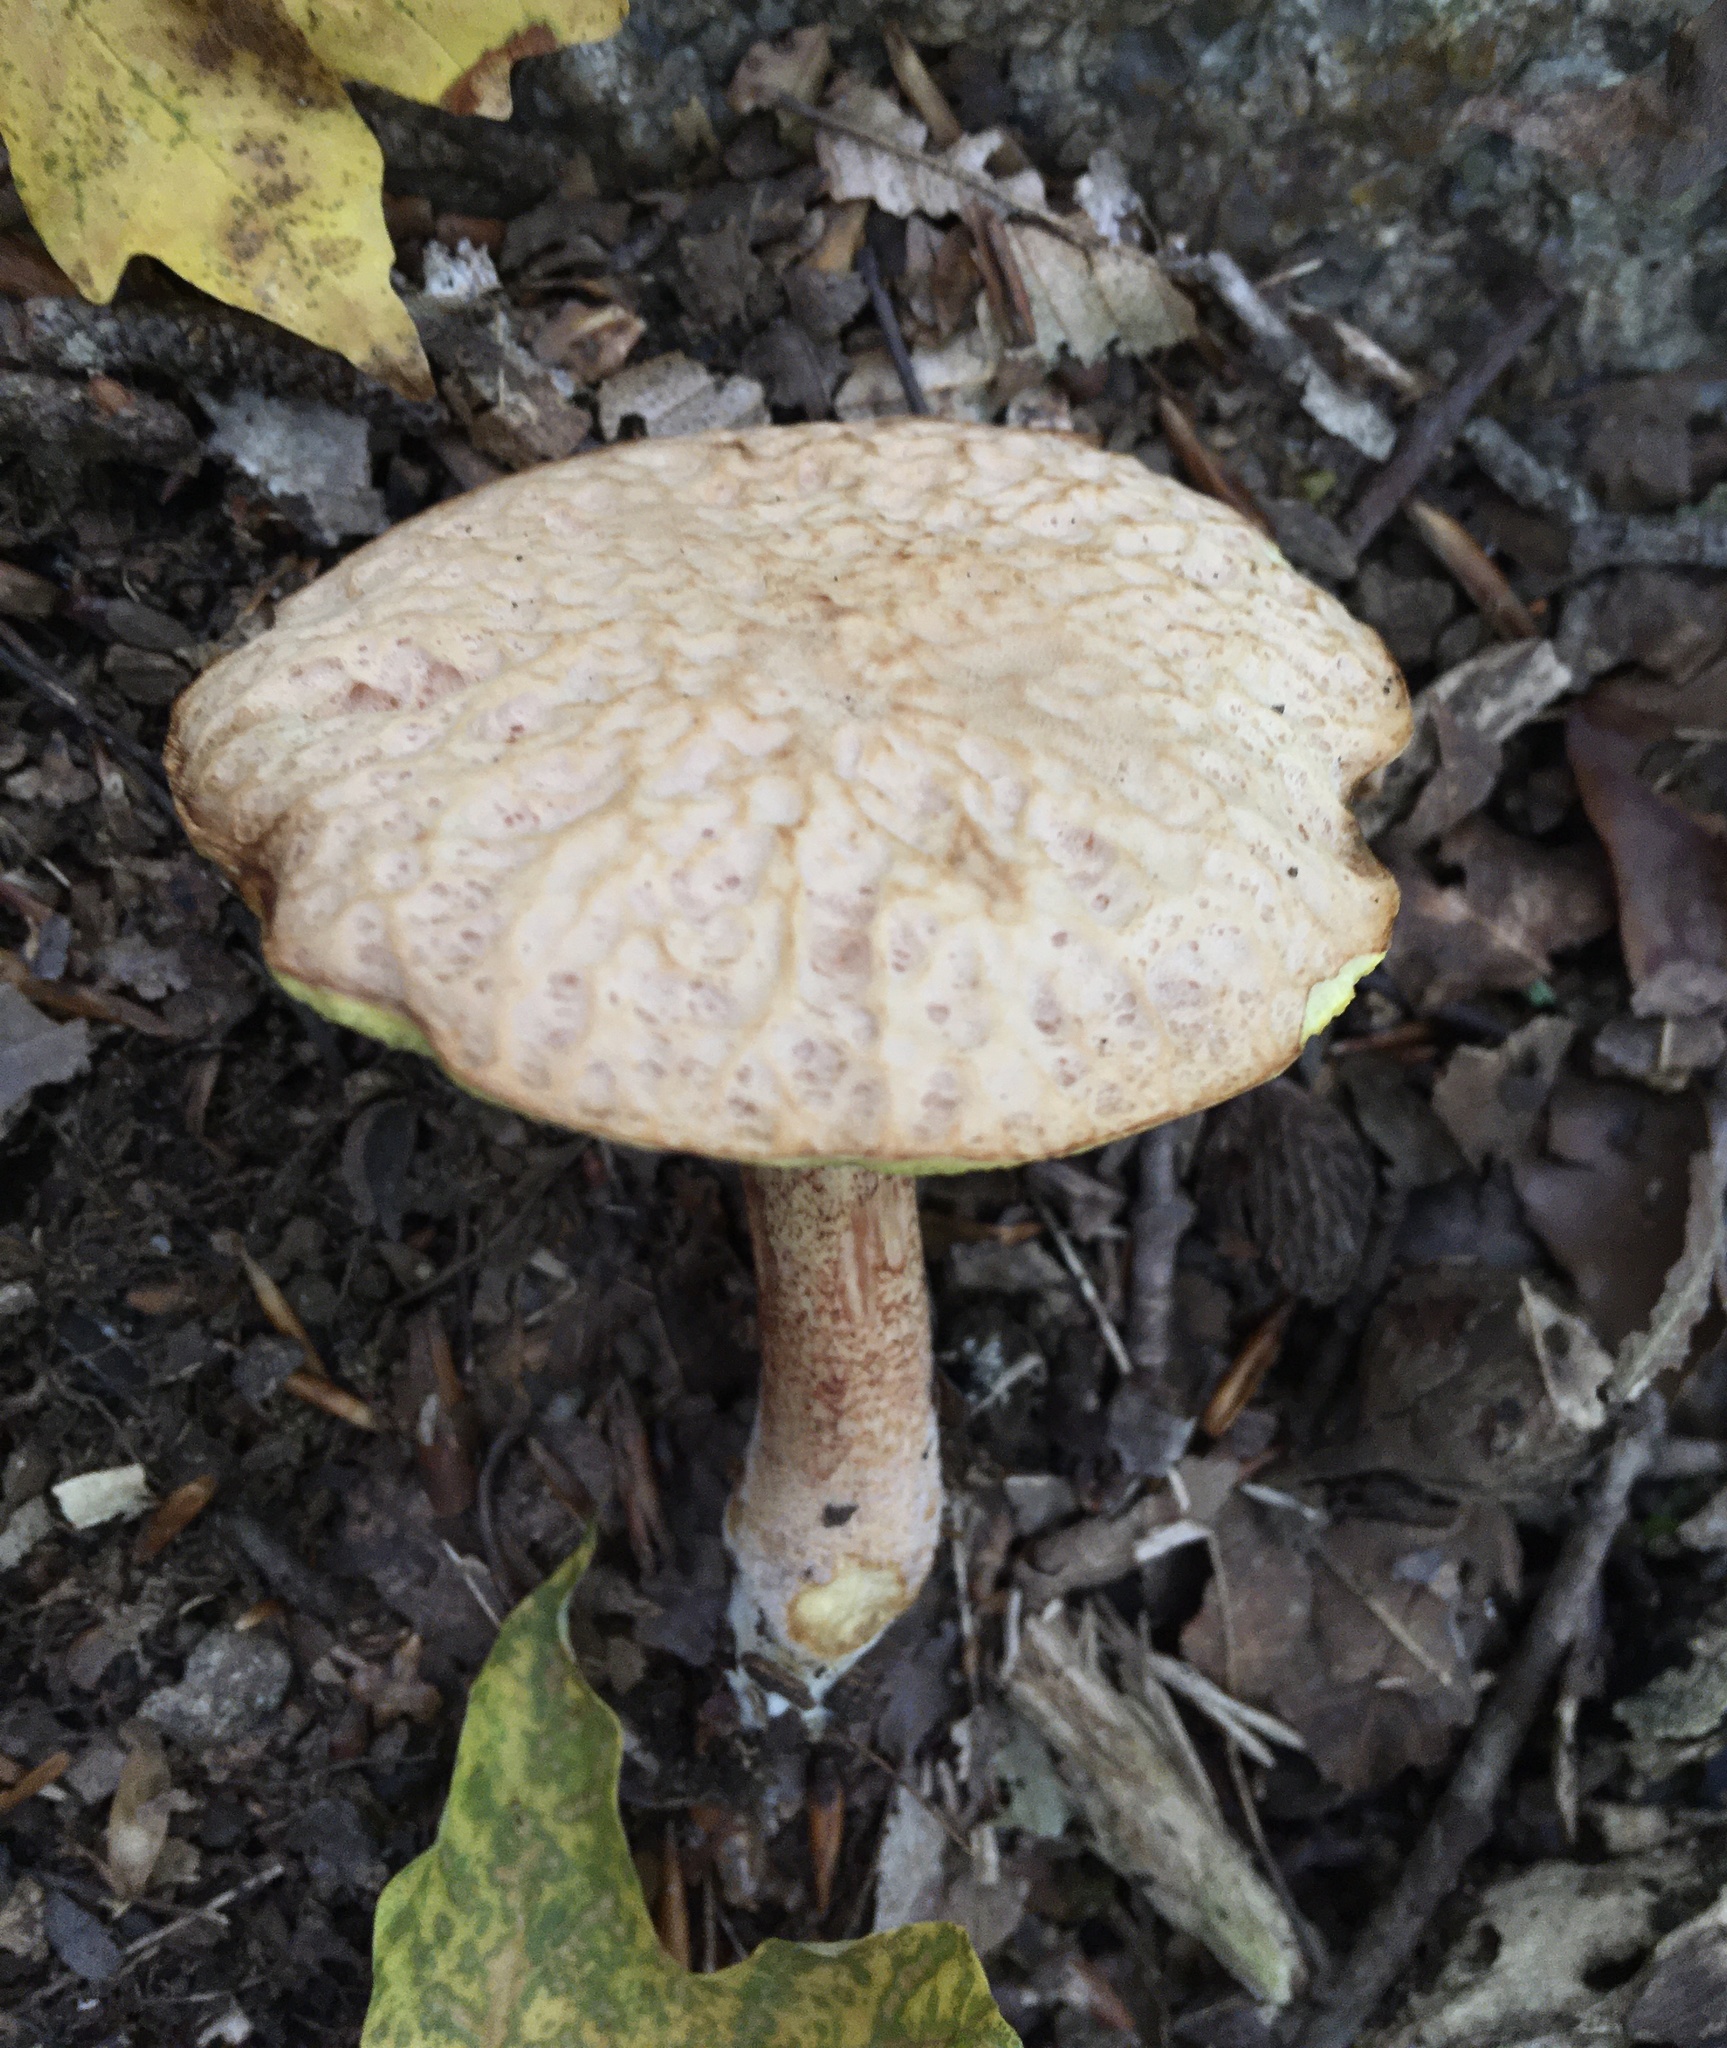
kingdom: Fungi
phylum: Basidiomycota
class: Agaricomycetes
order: Boletales
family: Boletaceae
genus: Hemileccinum
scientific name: Hemileccinum hortonii
